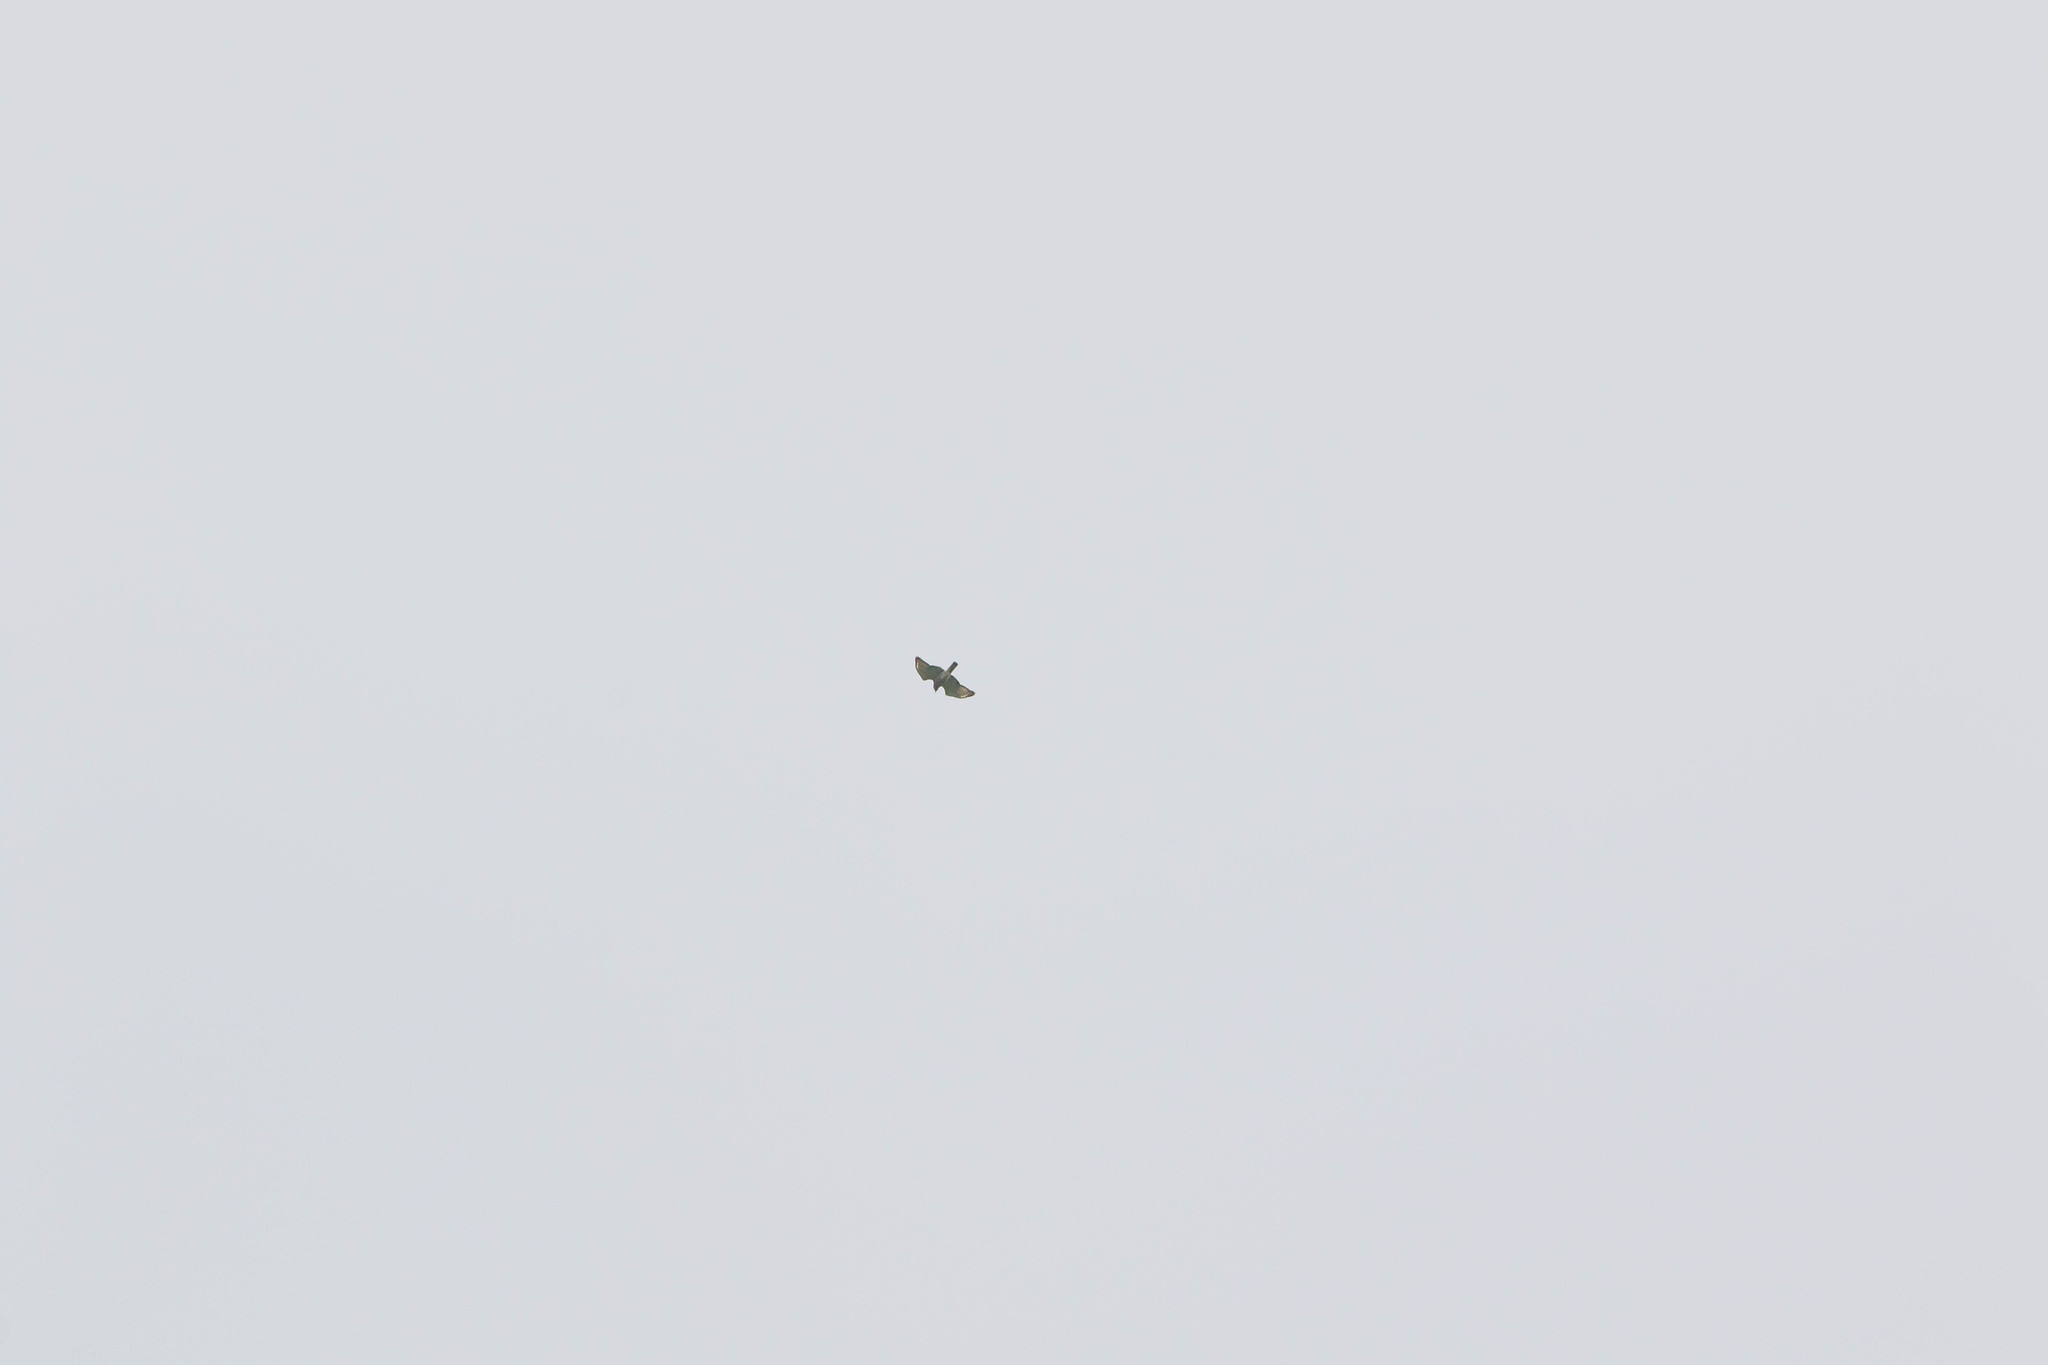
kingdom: Animalia
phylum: Chordata
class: Aves
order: Accipitriformes
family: Accipitridae
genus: Buteo
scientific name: Buteo platypterus
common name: Broad-winged hawk
